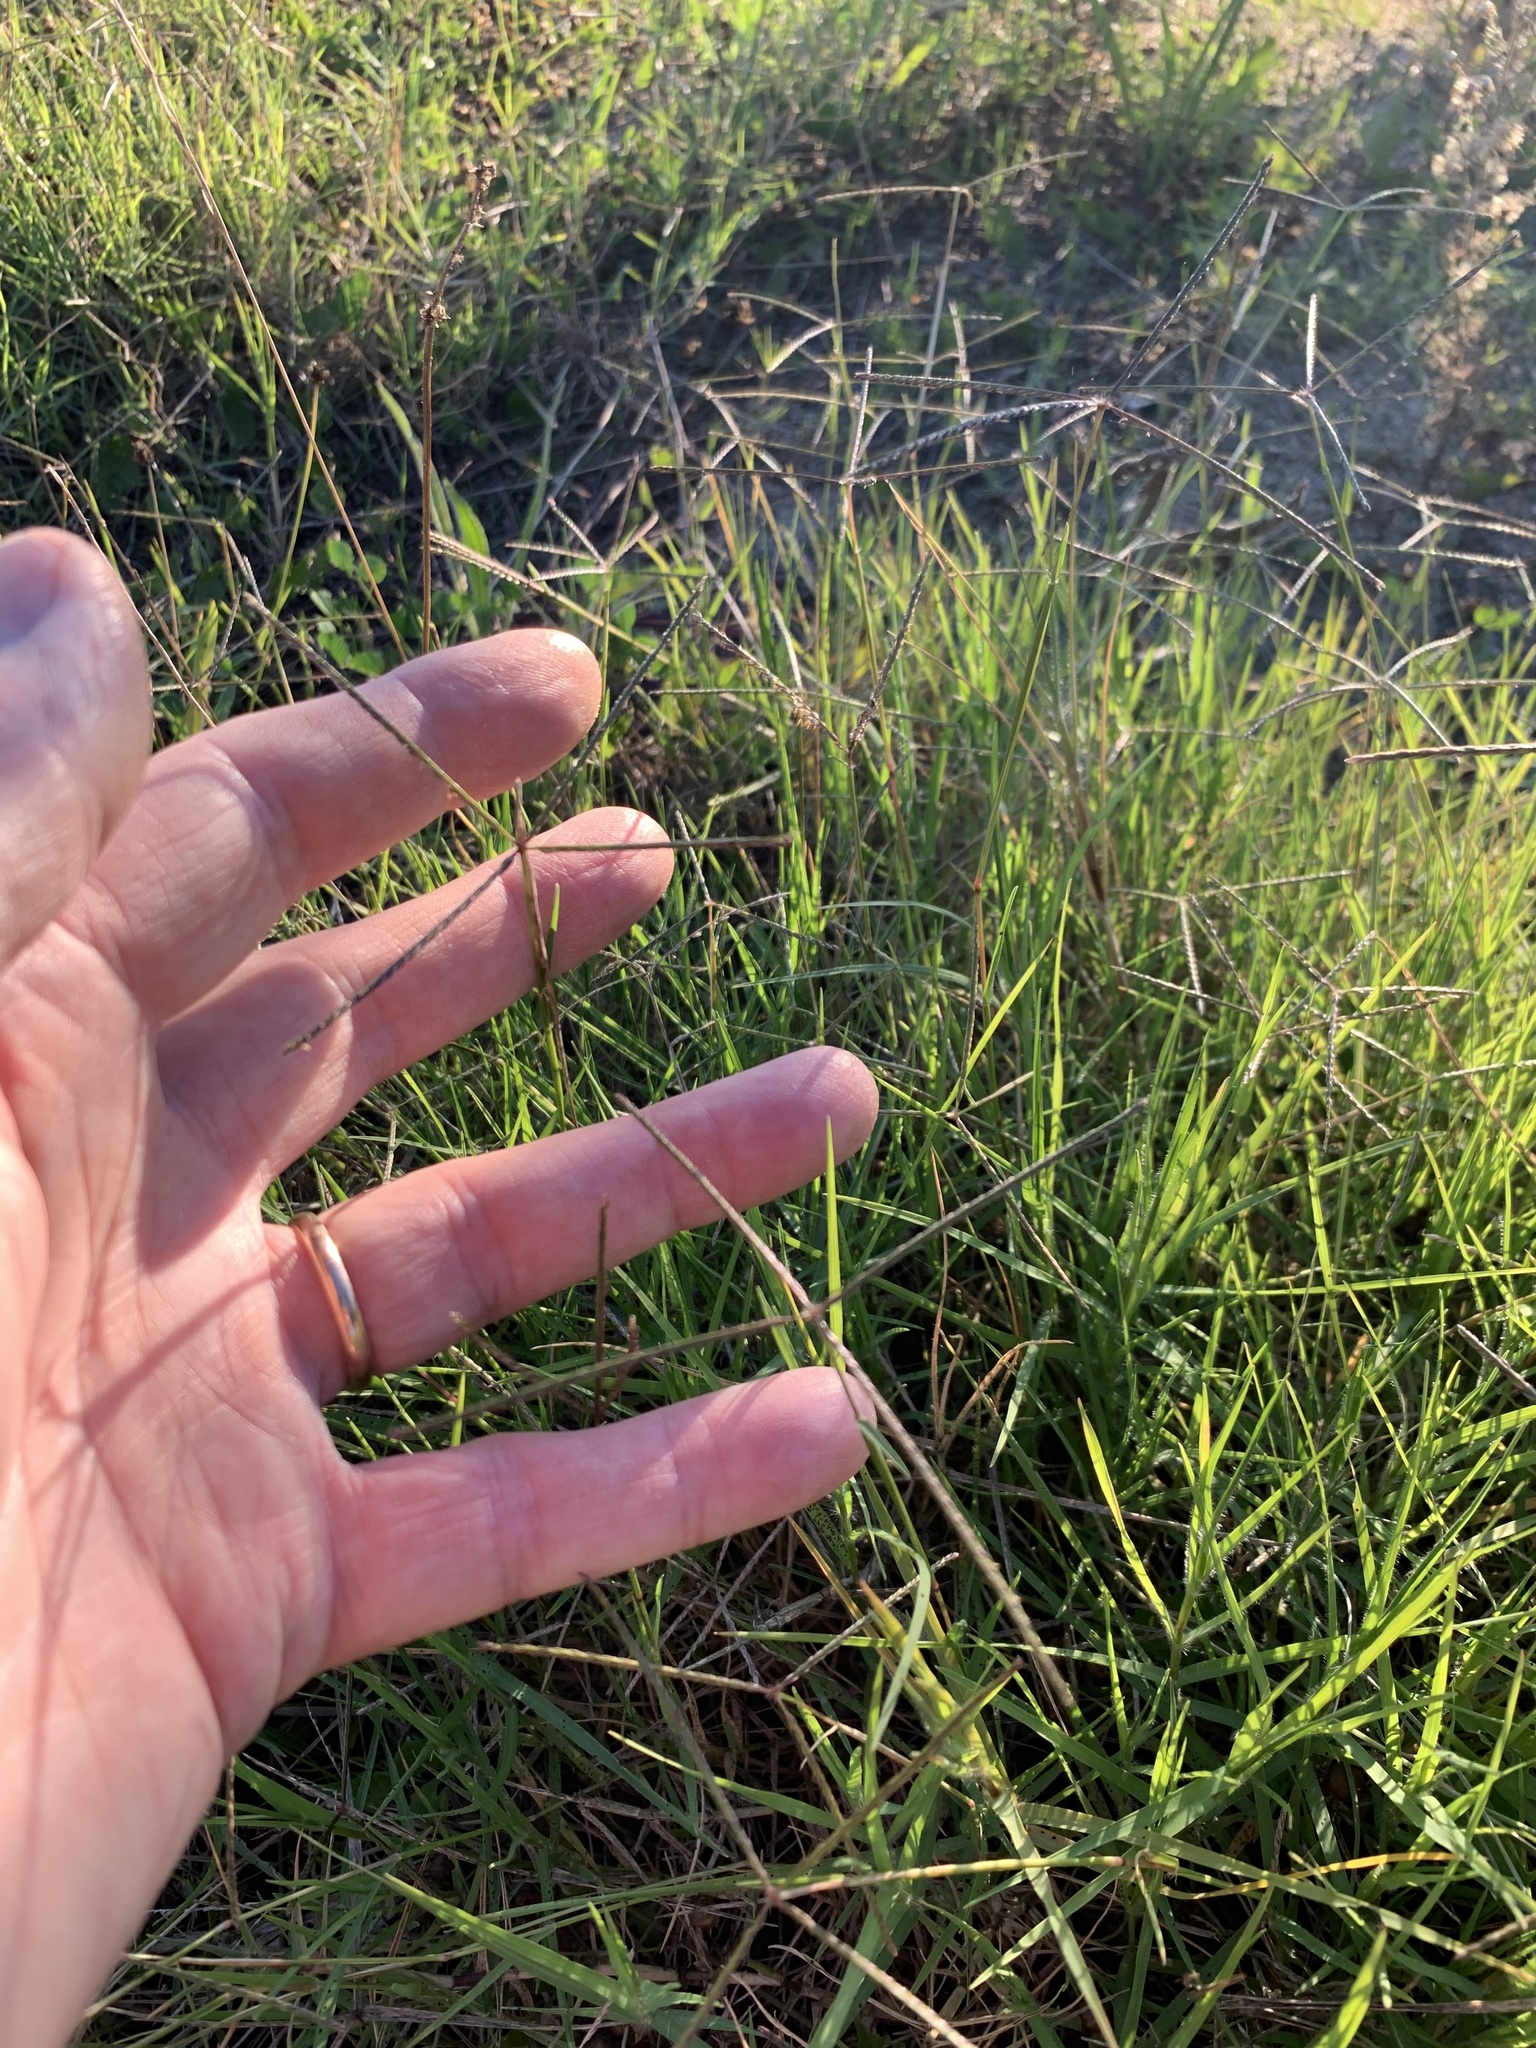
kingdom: Plantae
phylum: Tracheophyta
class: Liliopsida
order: Poales
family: Poaceae
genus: Cynodon
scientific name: Cynodon dactylon
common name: Bermuda grass
